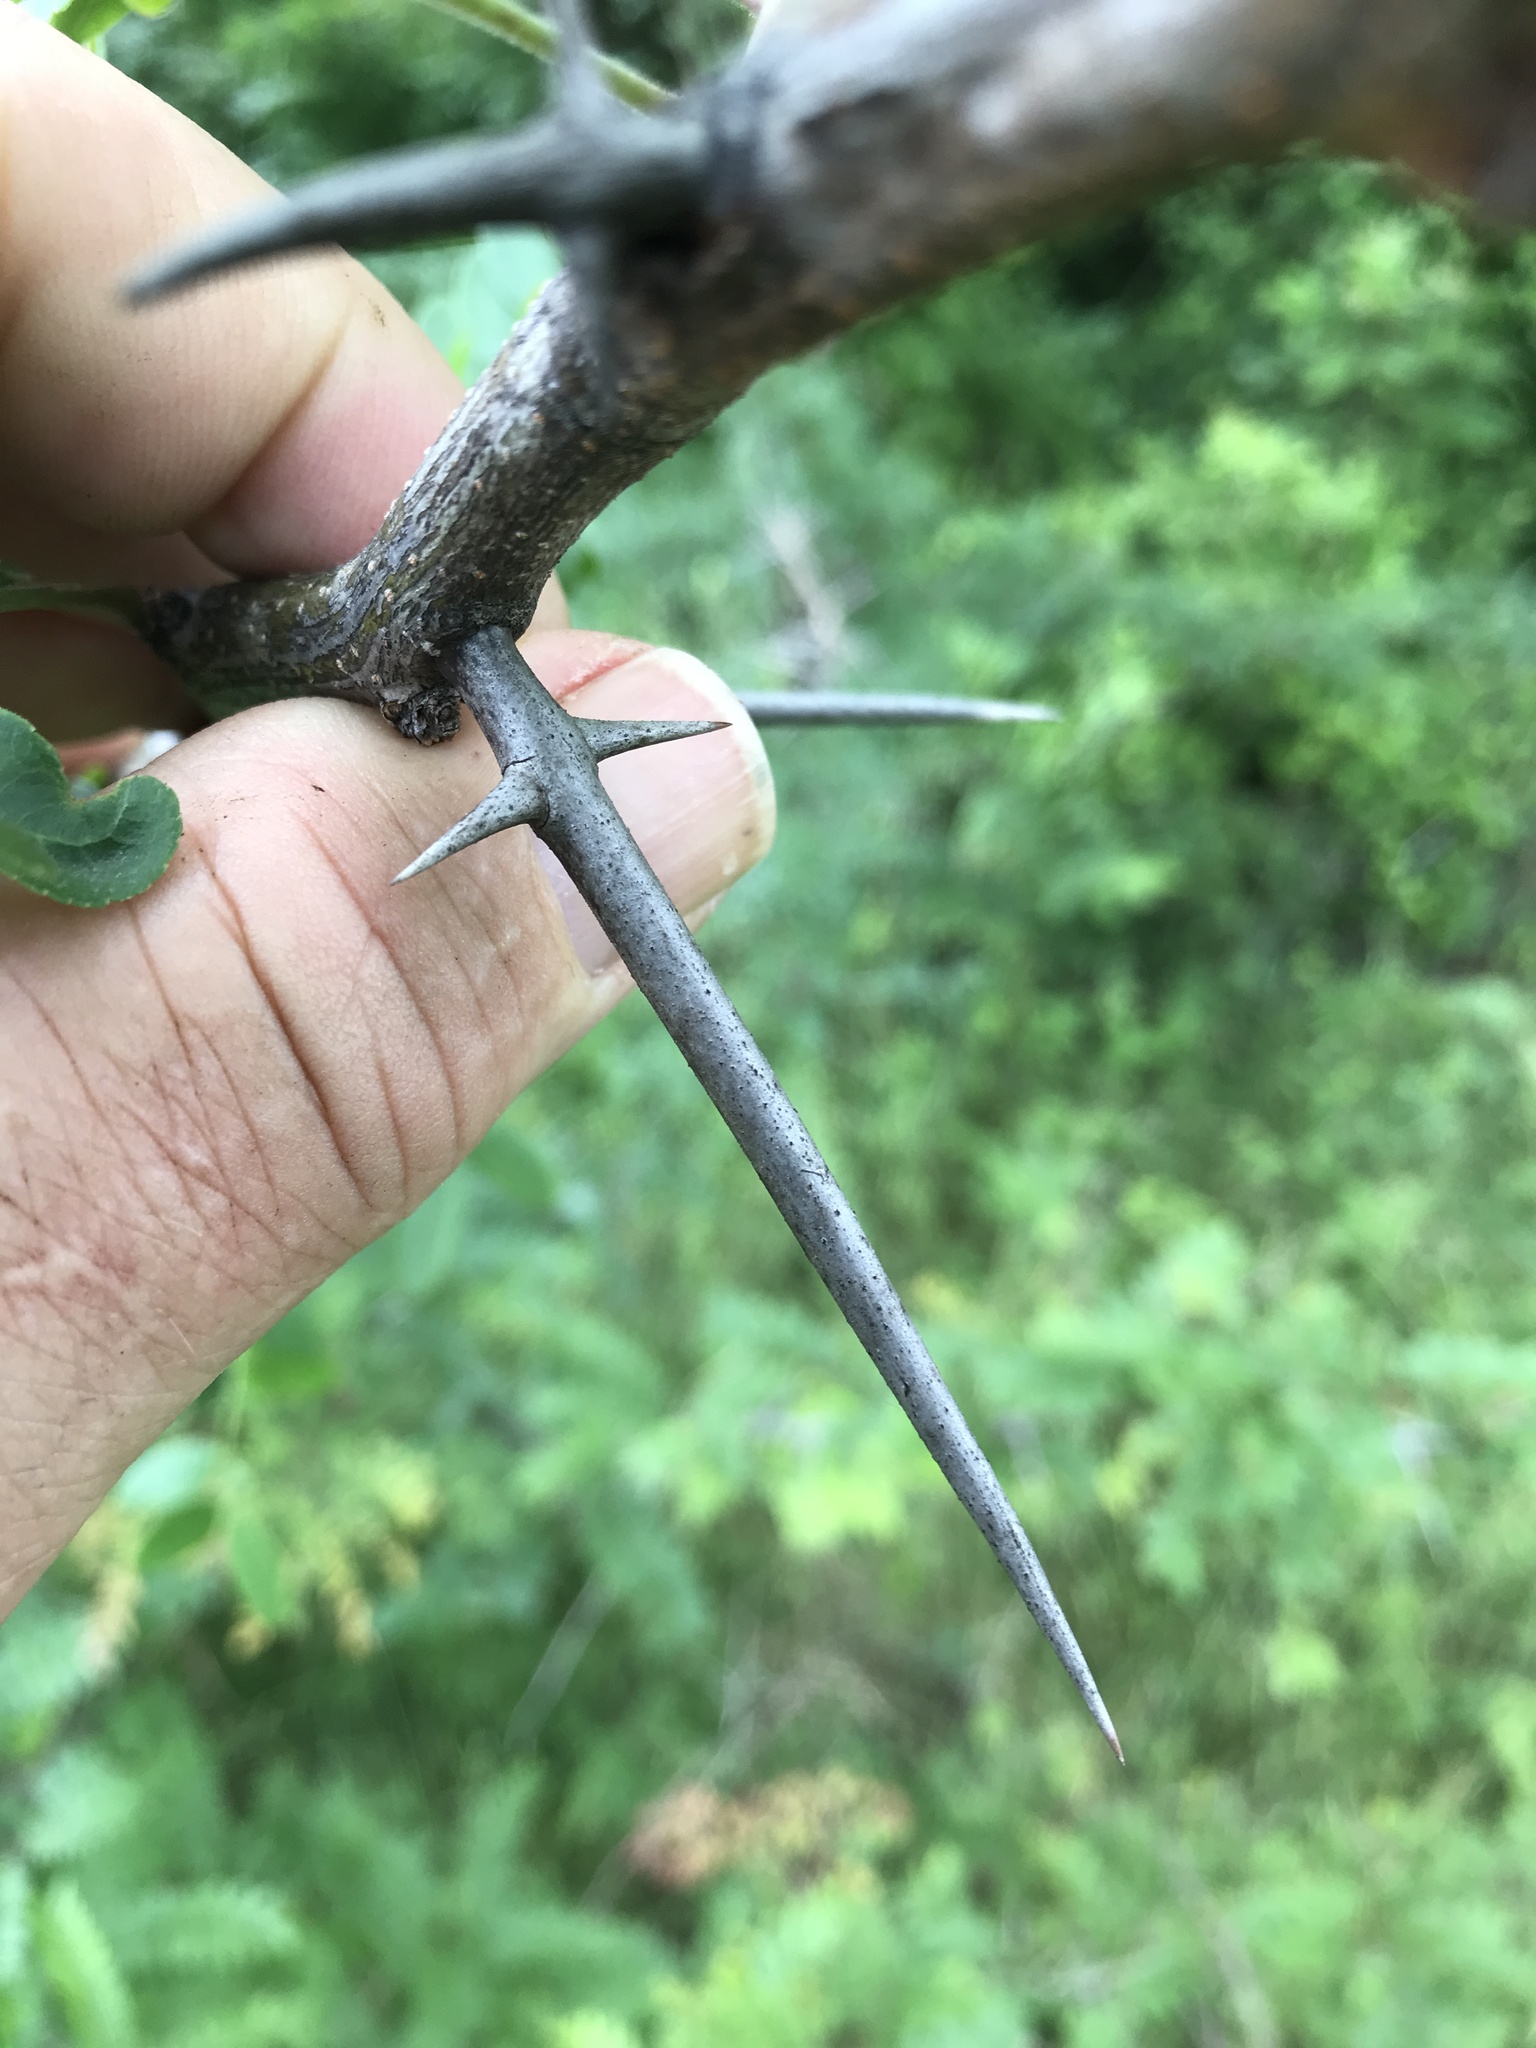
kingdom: Plantae
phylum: Tracheophyta
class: Magnoliopsida
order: Fabales
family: Fabaceae
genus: Gleditsia
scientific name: Gleditsia triacanthos
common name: Common honeylocust
